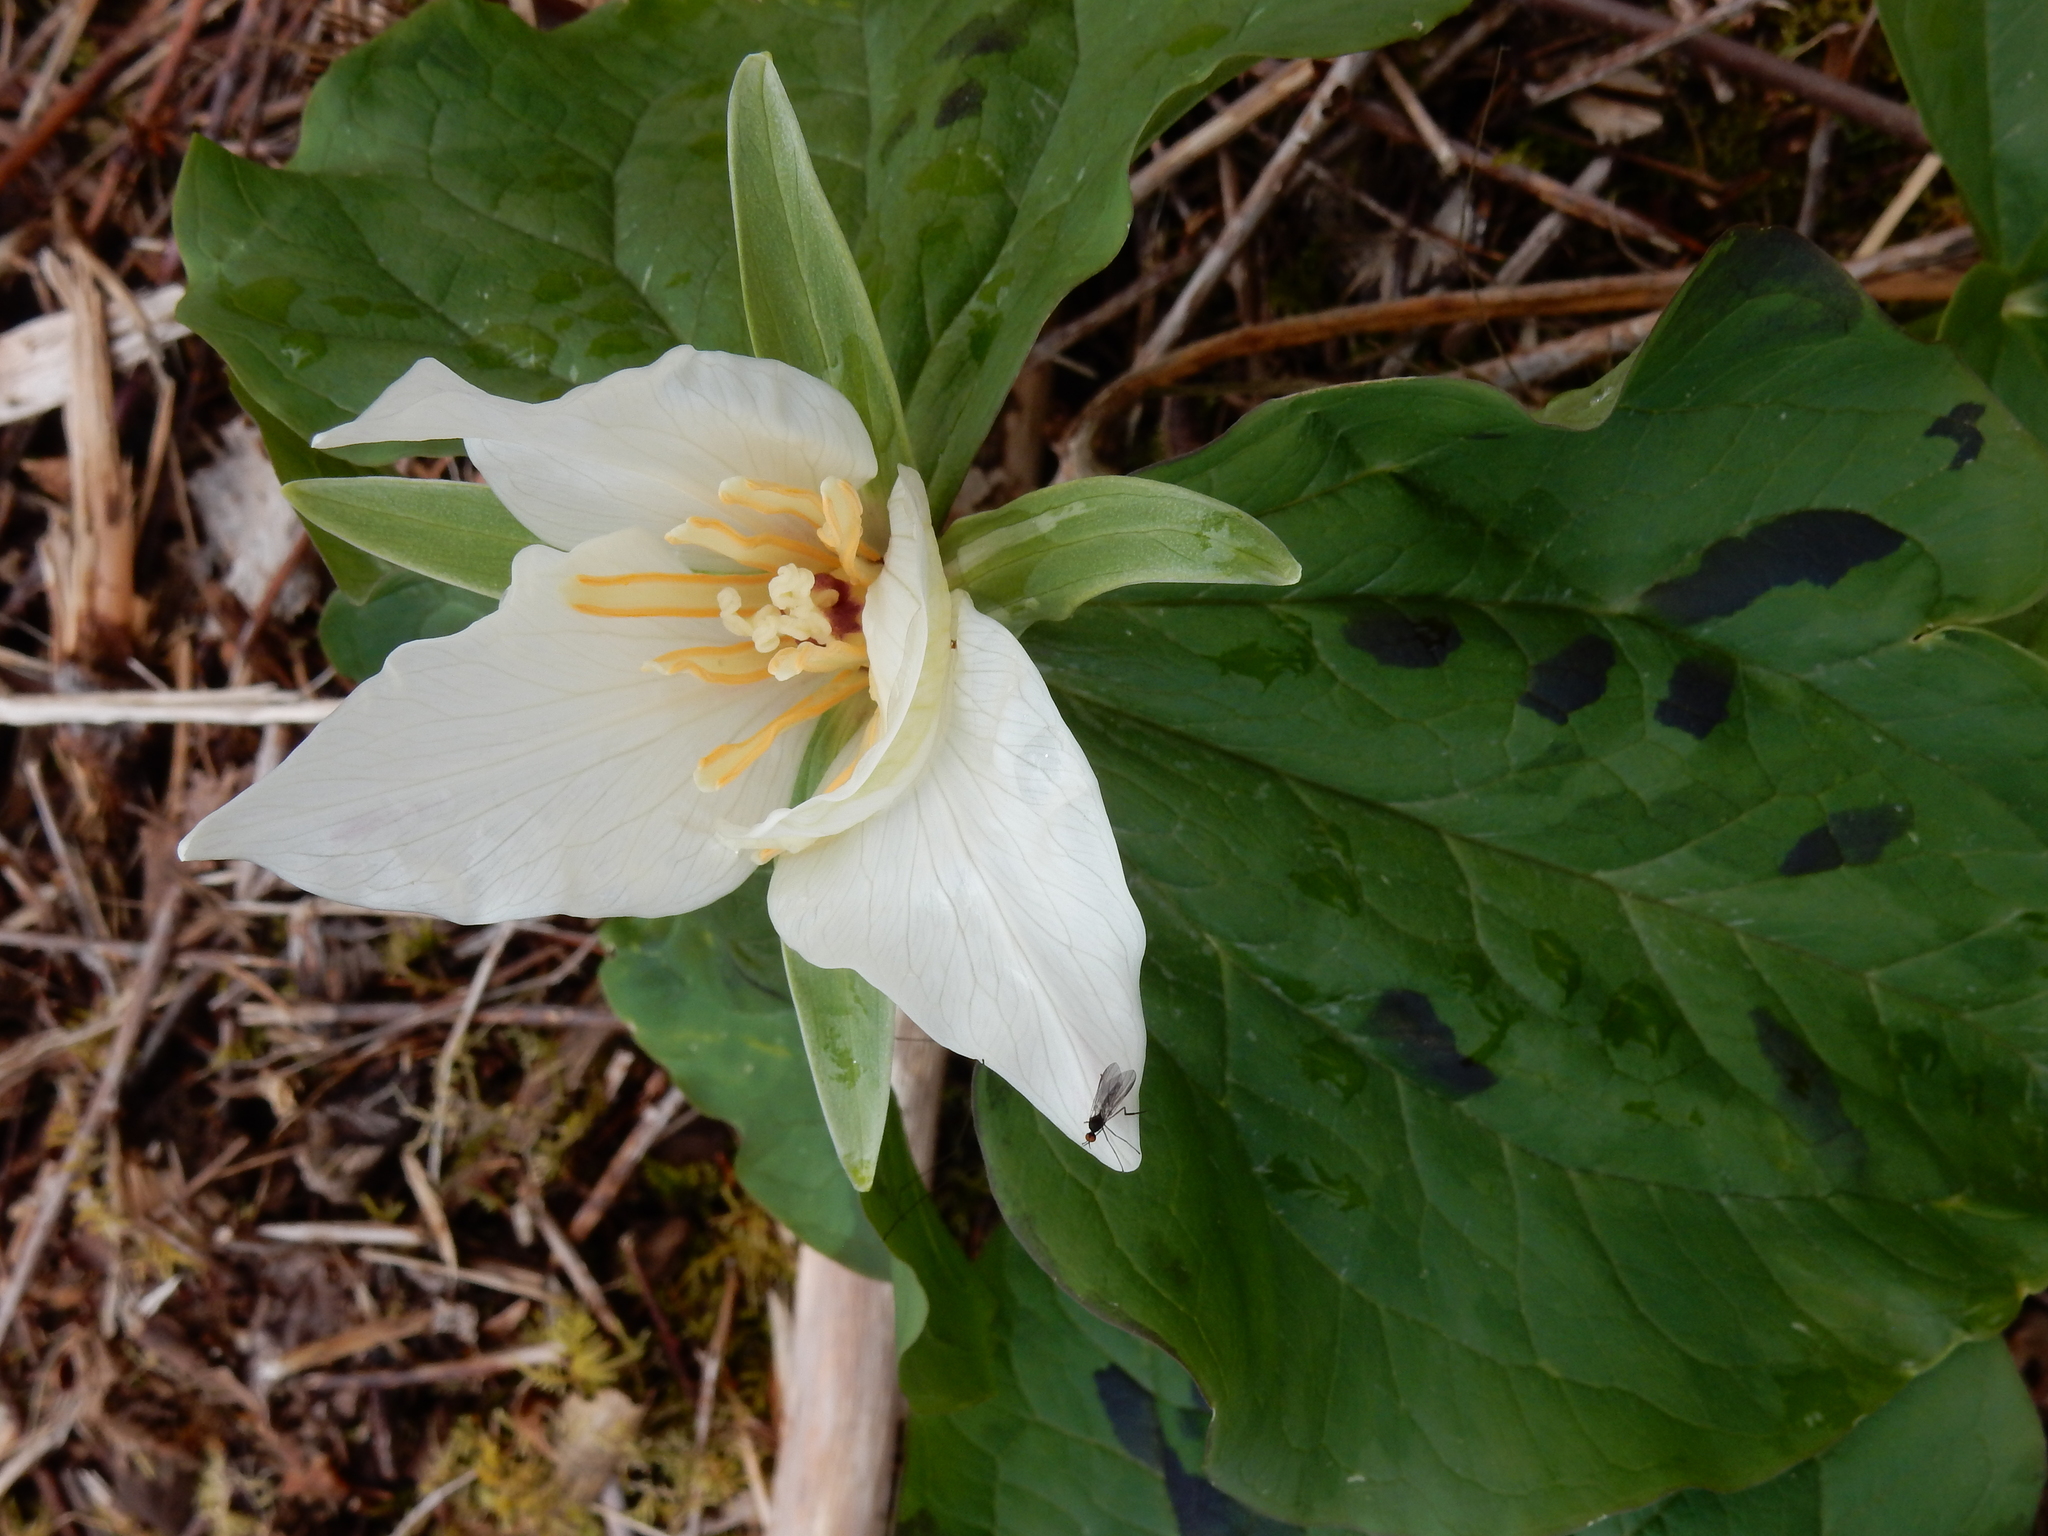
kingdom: Plantae
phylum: Tracheophyta
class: Liliopsida
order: Liliales
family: Melanthiaceae
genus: Trillium
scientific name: Trillium albidum
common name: Freeman's trillium
